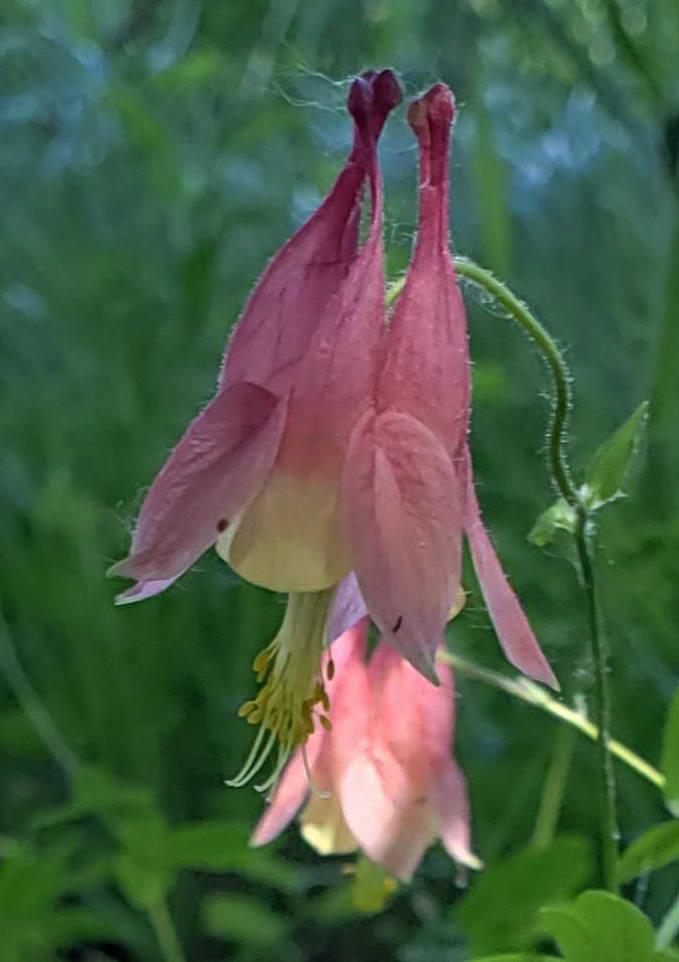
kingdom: Plantae
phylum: Tracheophyta
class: Magnoliopsida
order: Ranunculales
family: Ranunculaceae
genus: Aquilegia
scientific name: Aquilegia canadensis
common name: American columbine
